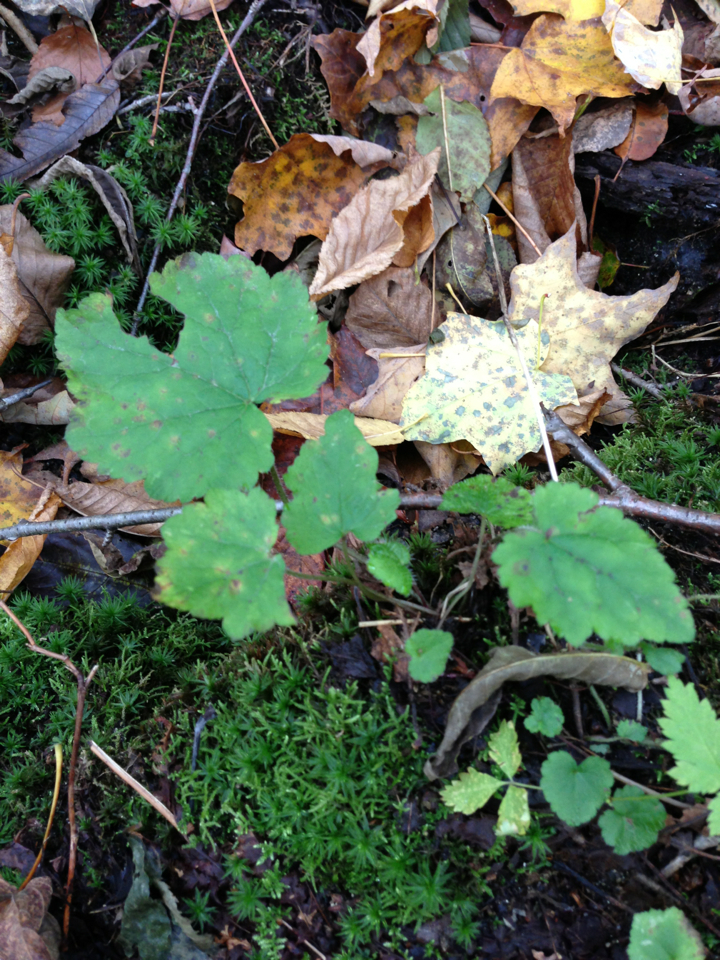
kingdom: Plantae
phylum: Tracheophyta
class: Magnoliopsida
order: Saxifragales
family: Saxifragaceae
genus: Tiarella
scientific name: Tiarella stolonifera
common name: Stoloniferous foamflower
